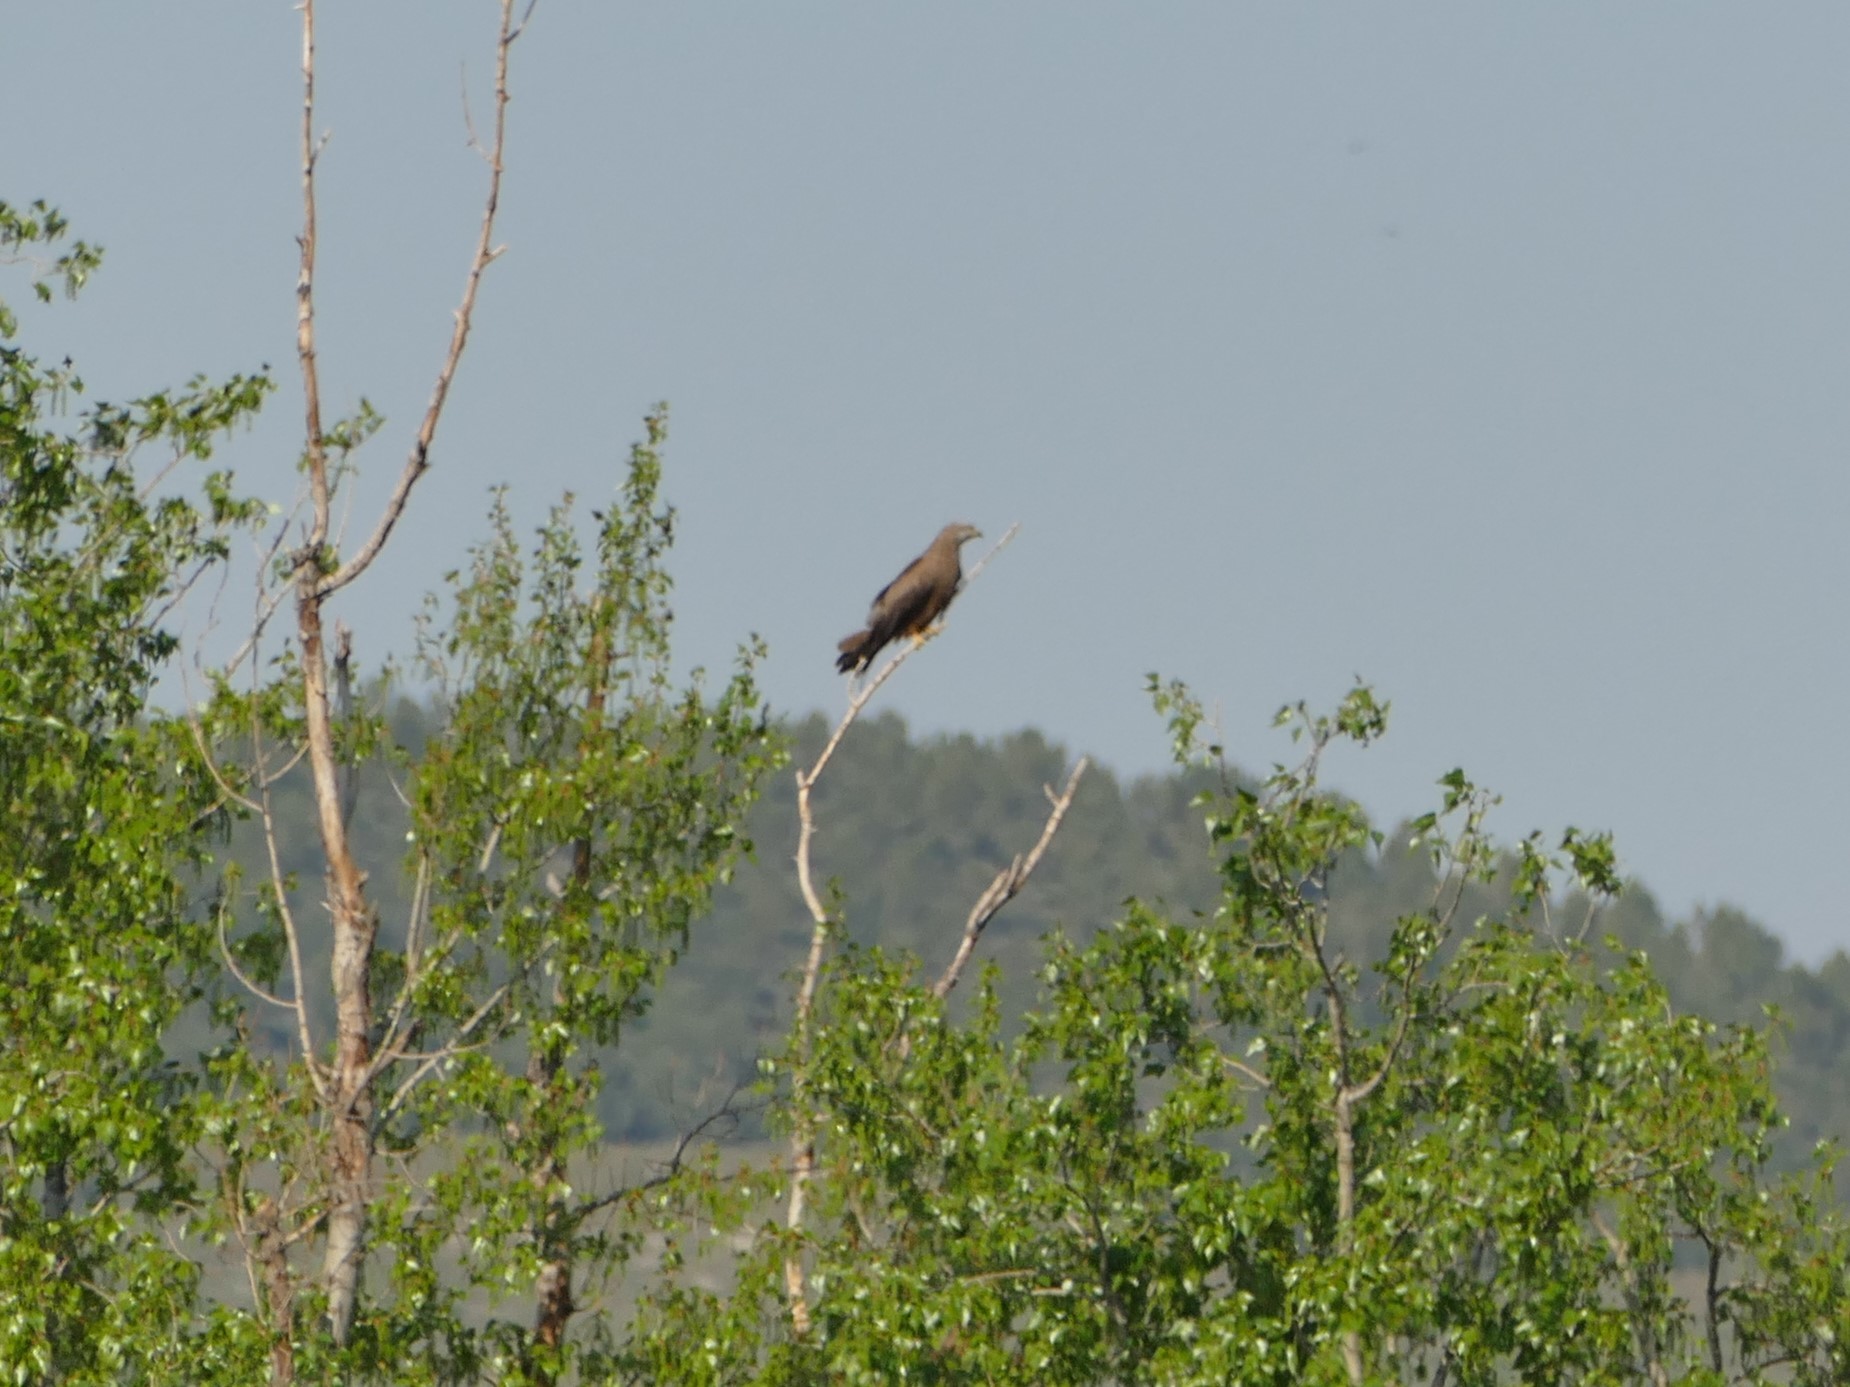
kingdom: Animalia
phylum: Chordata
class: Aves
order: Accipitriformes
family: Accipitridae
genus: Milvus
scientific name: Milvus migrans
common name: Black kite
